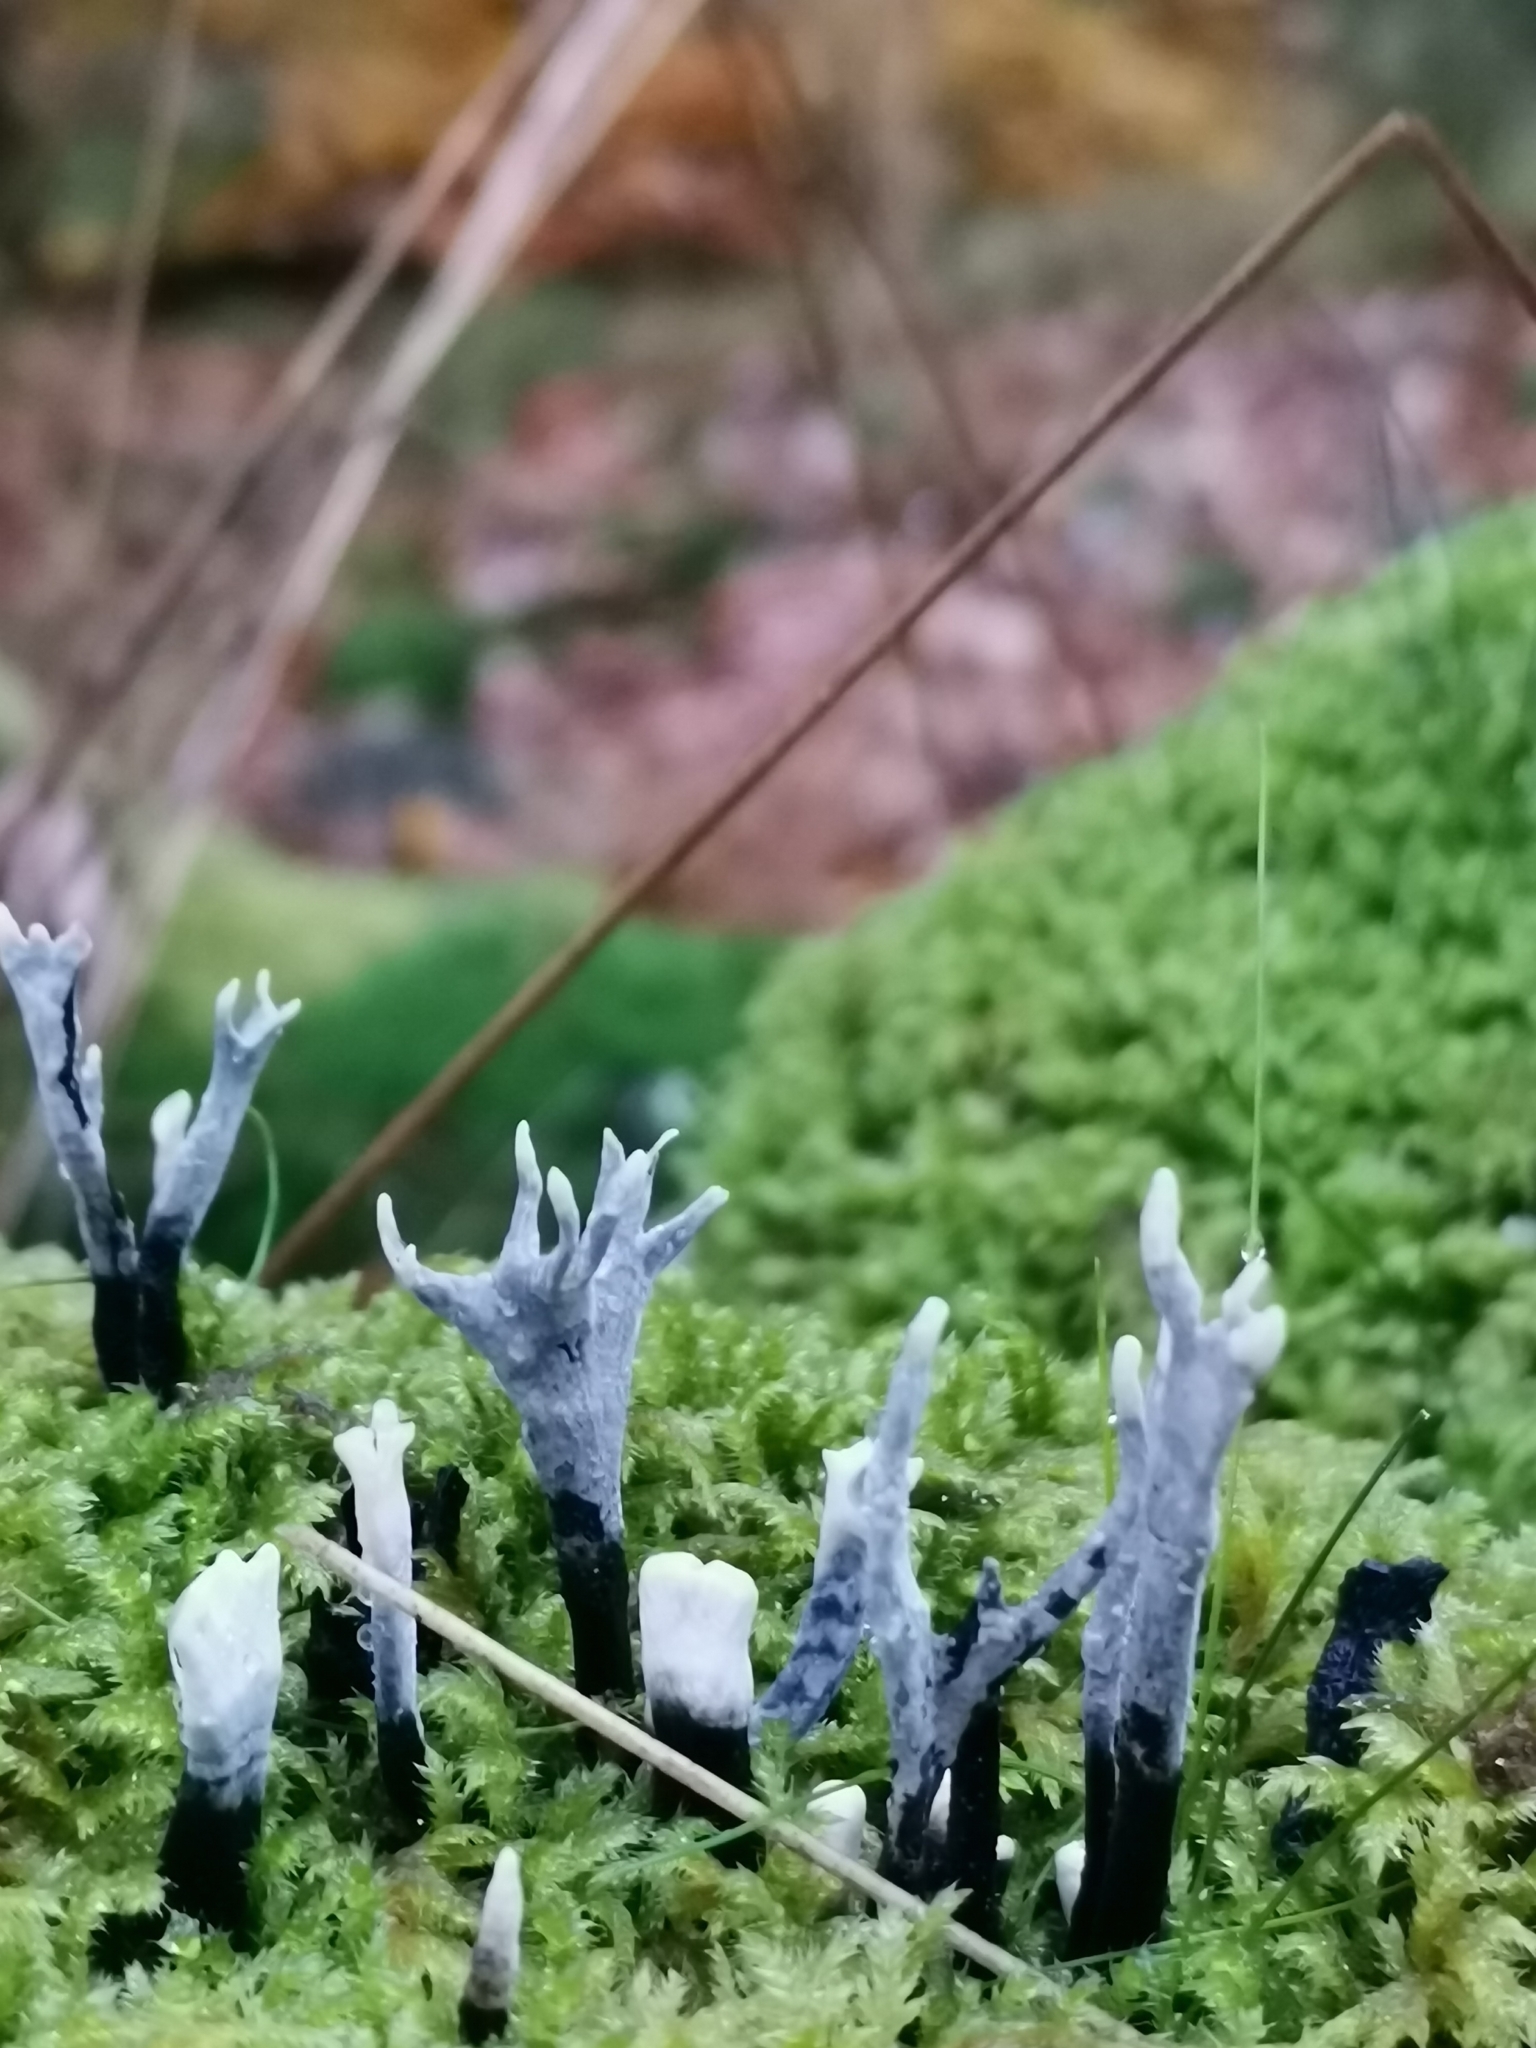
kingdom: Fungi
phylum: Ascomycota
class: Sordariomycetes
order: Xylariales
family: Xylariaceae
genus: Xylaria
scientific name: Xylaria hypoxylon
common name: Candle-snuff fungus
